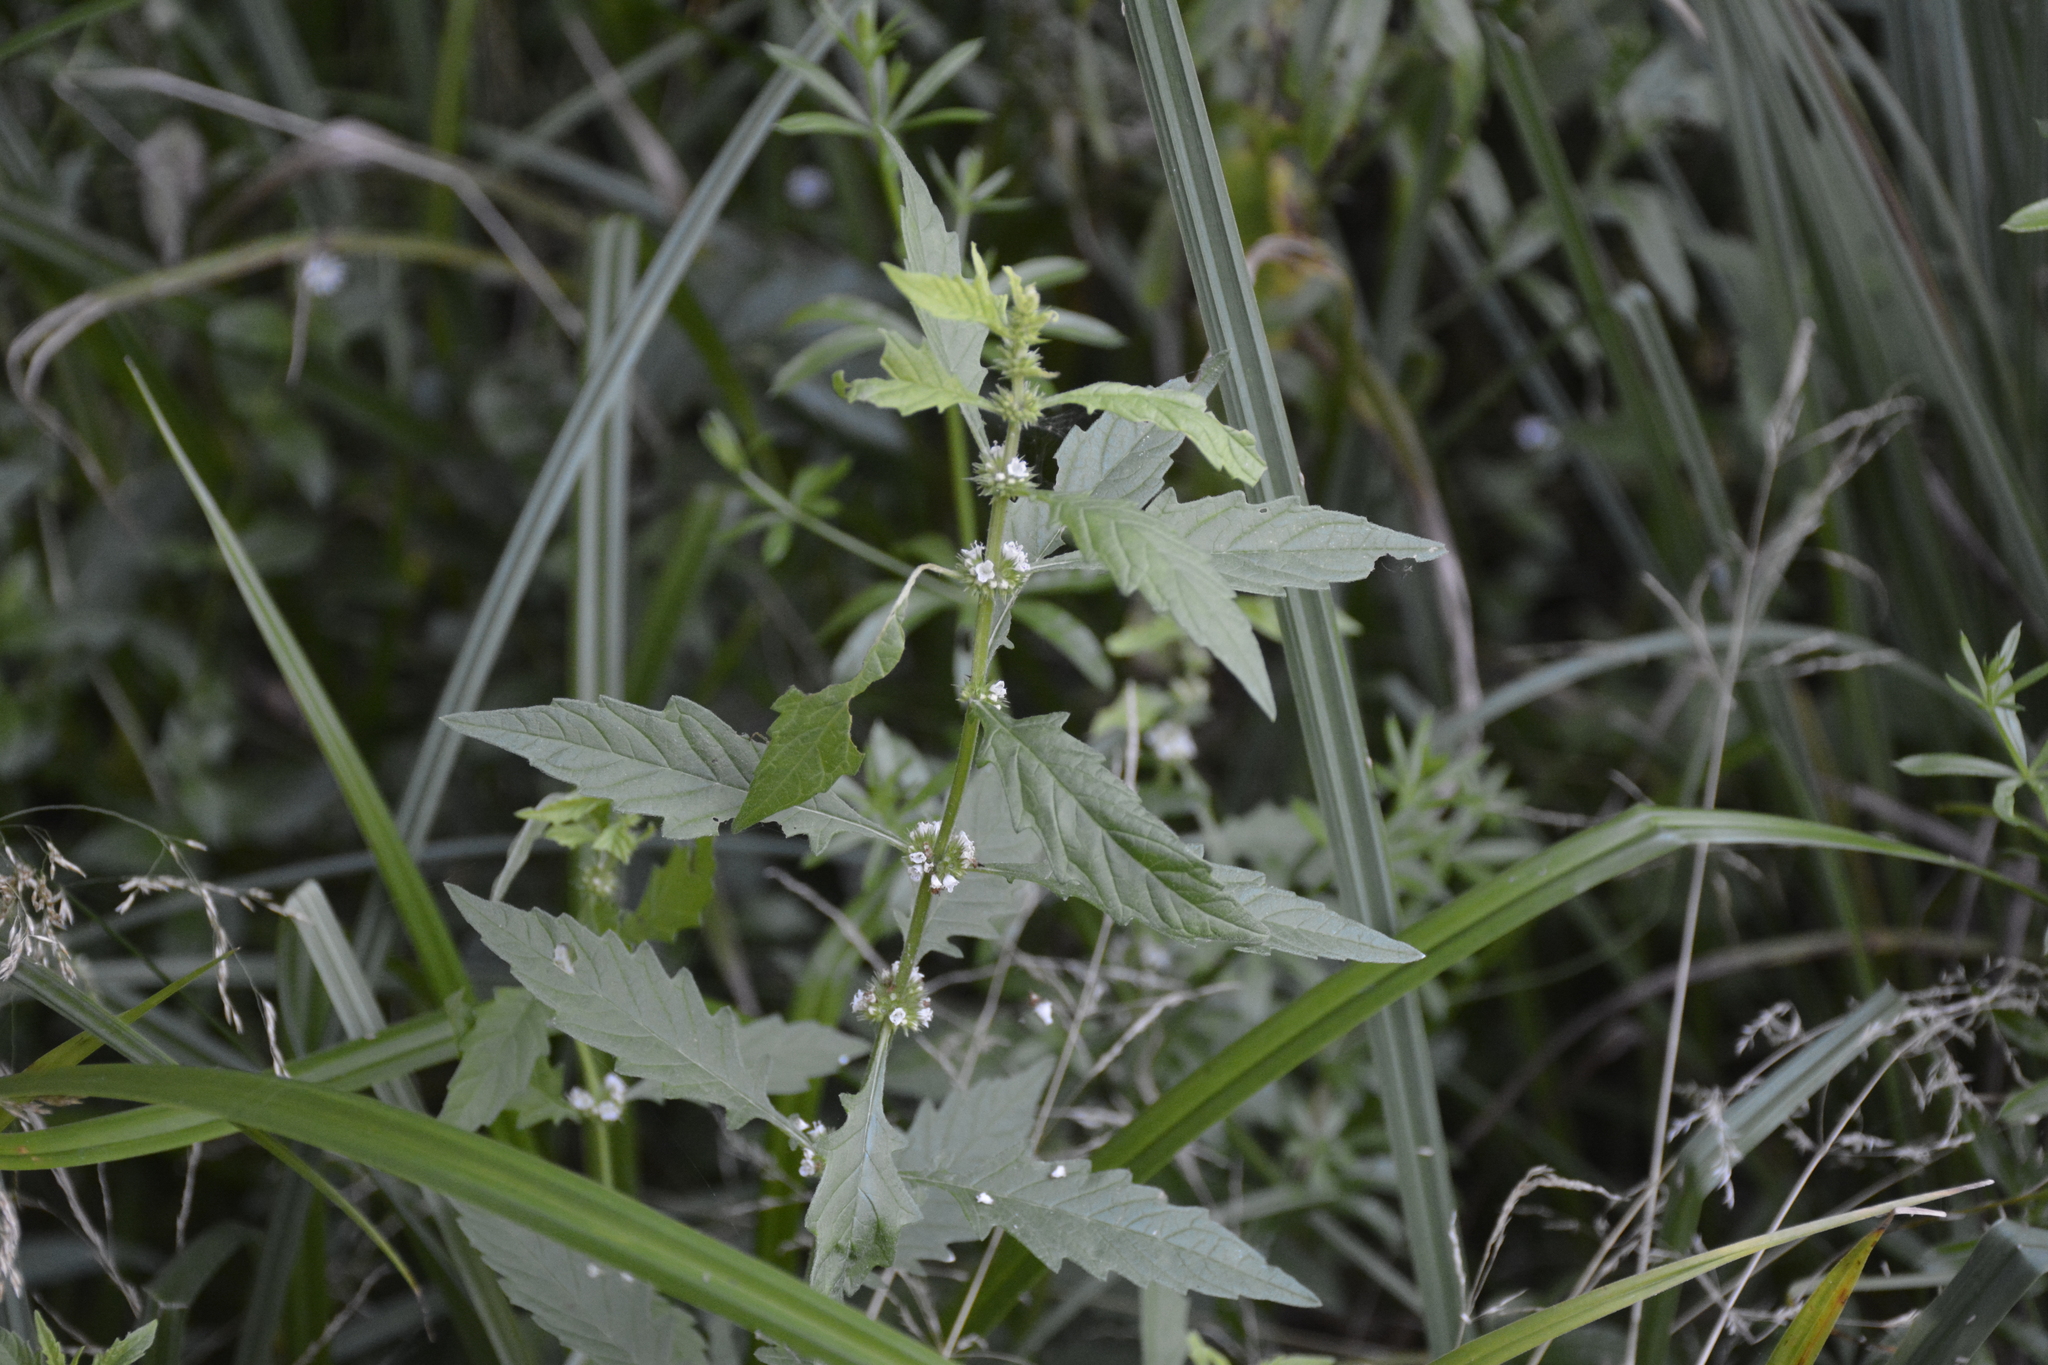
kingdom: Plantae
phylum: Tracheophyta
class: Magnoliopsida
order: Lamiales
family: Lamiaceae
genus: Lycopus
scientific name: Lycopus europaeus
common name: European bugleweed
